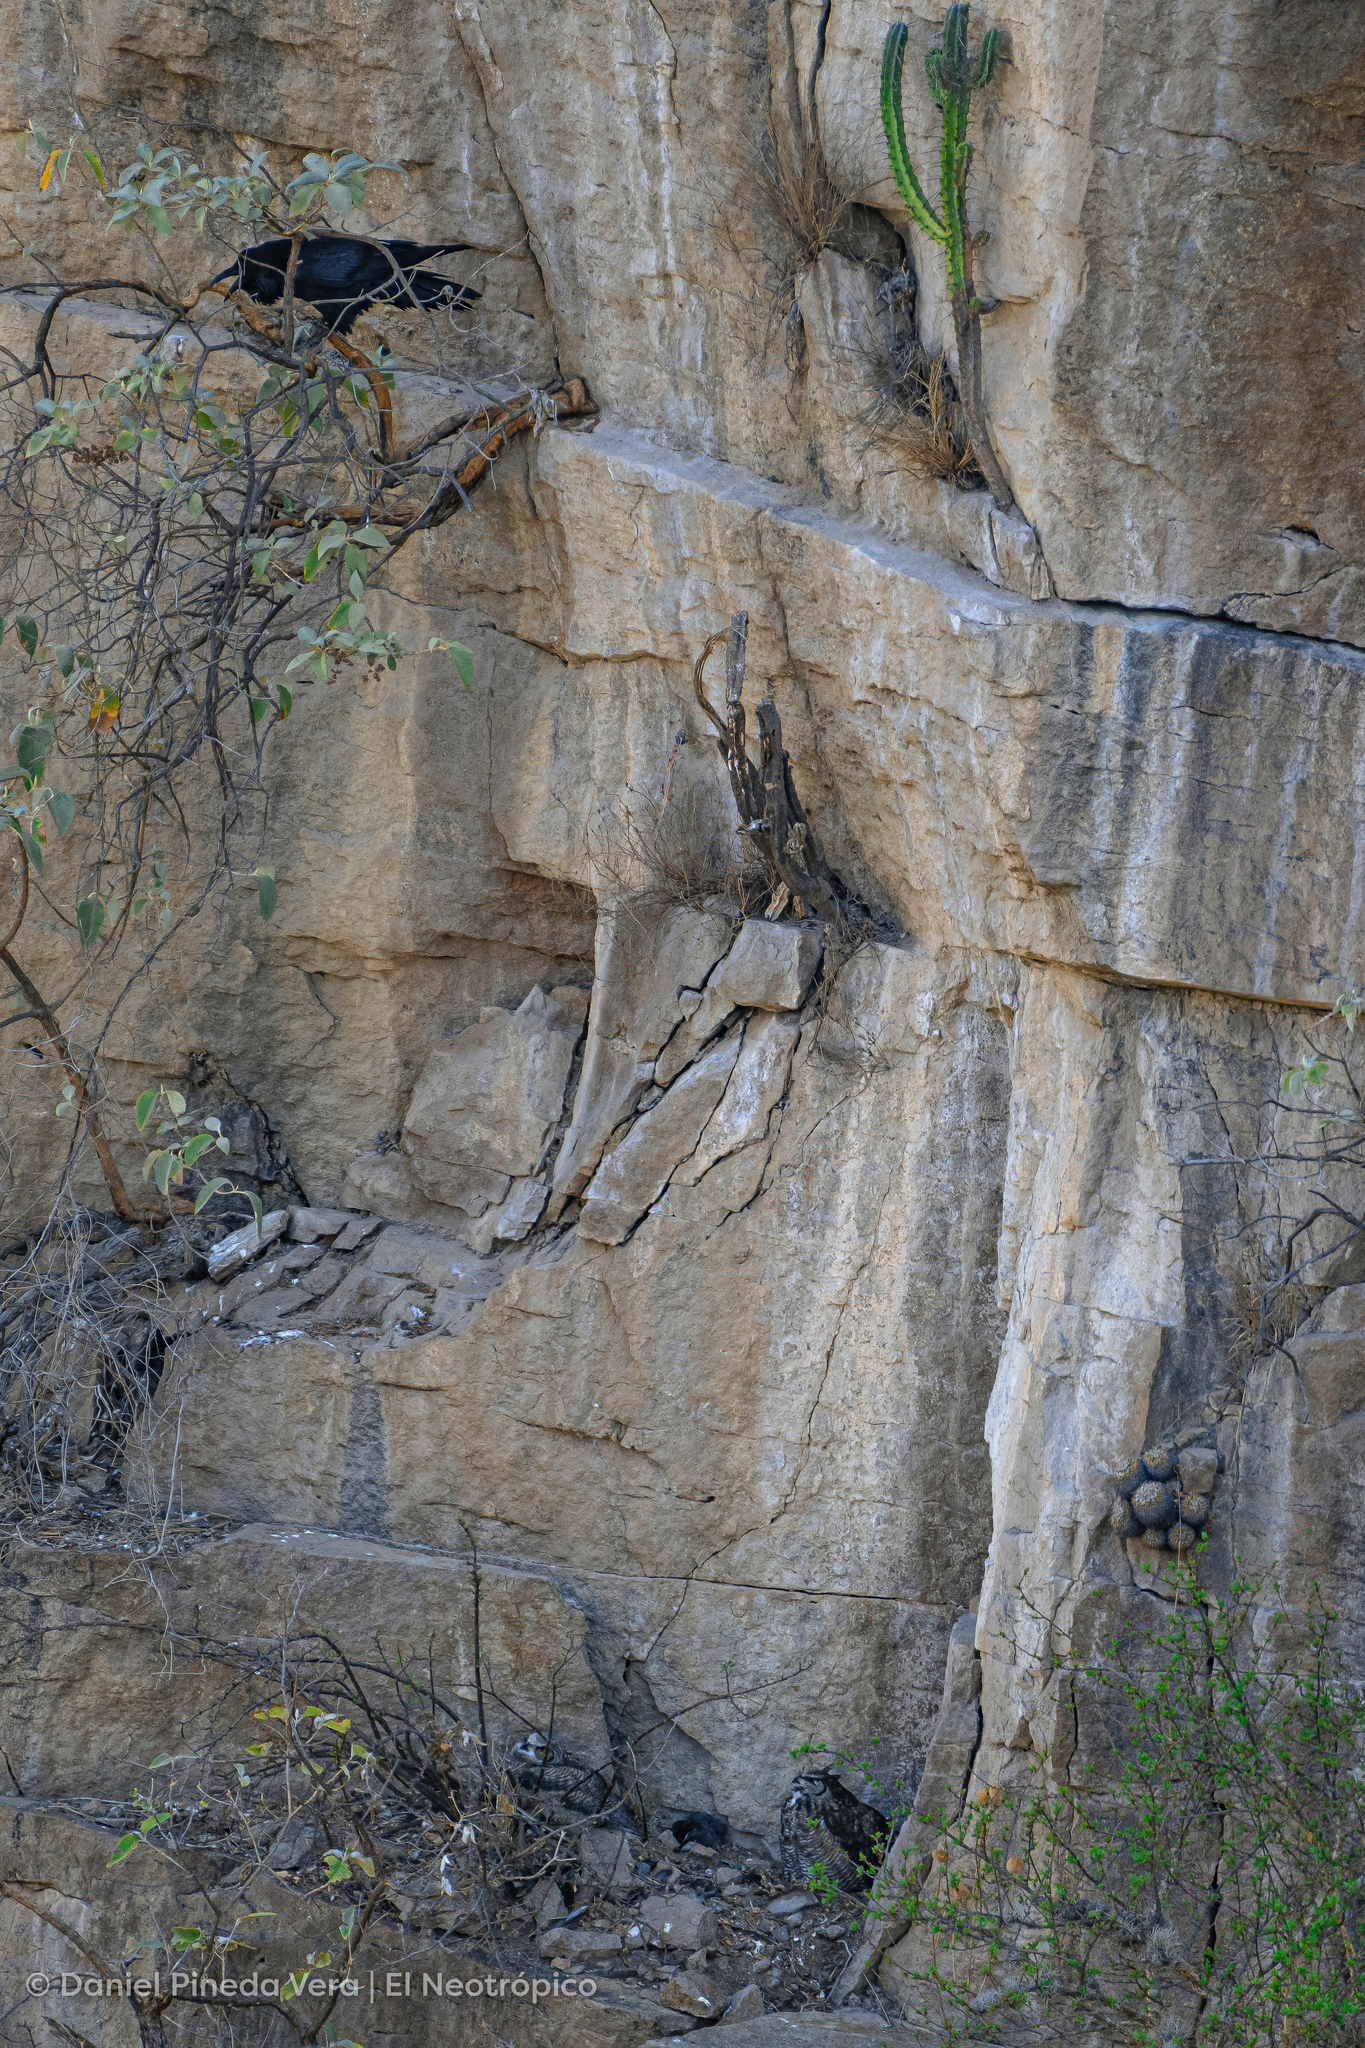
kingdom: Animalia
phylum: Chordata
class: Aves
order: Passeriformes
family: Corvidae
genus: Corvus
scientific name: Corvus corax
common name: Common raven
